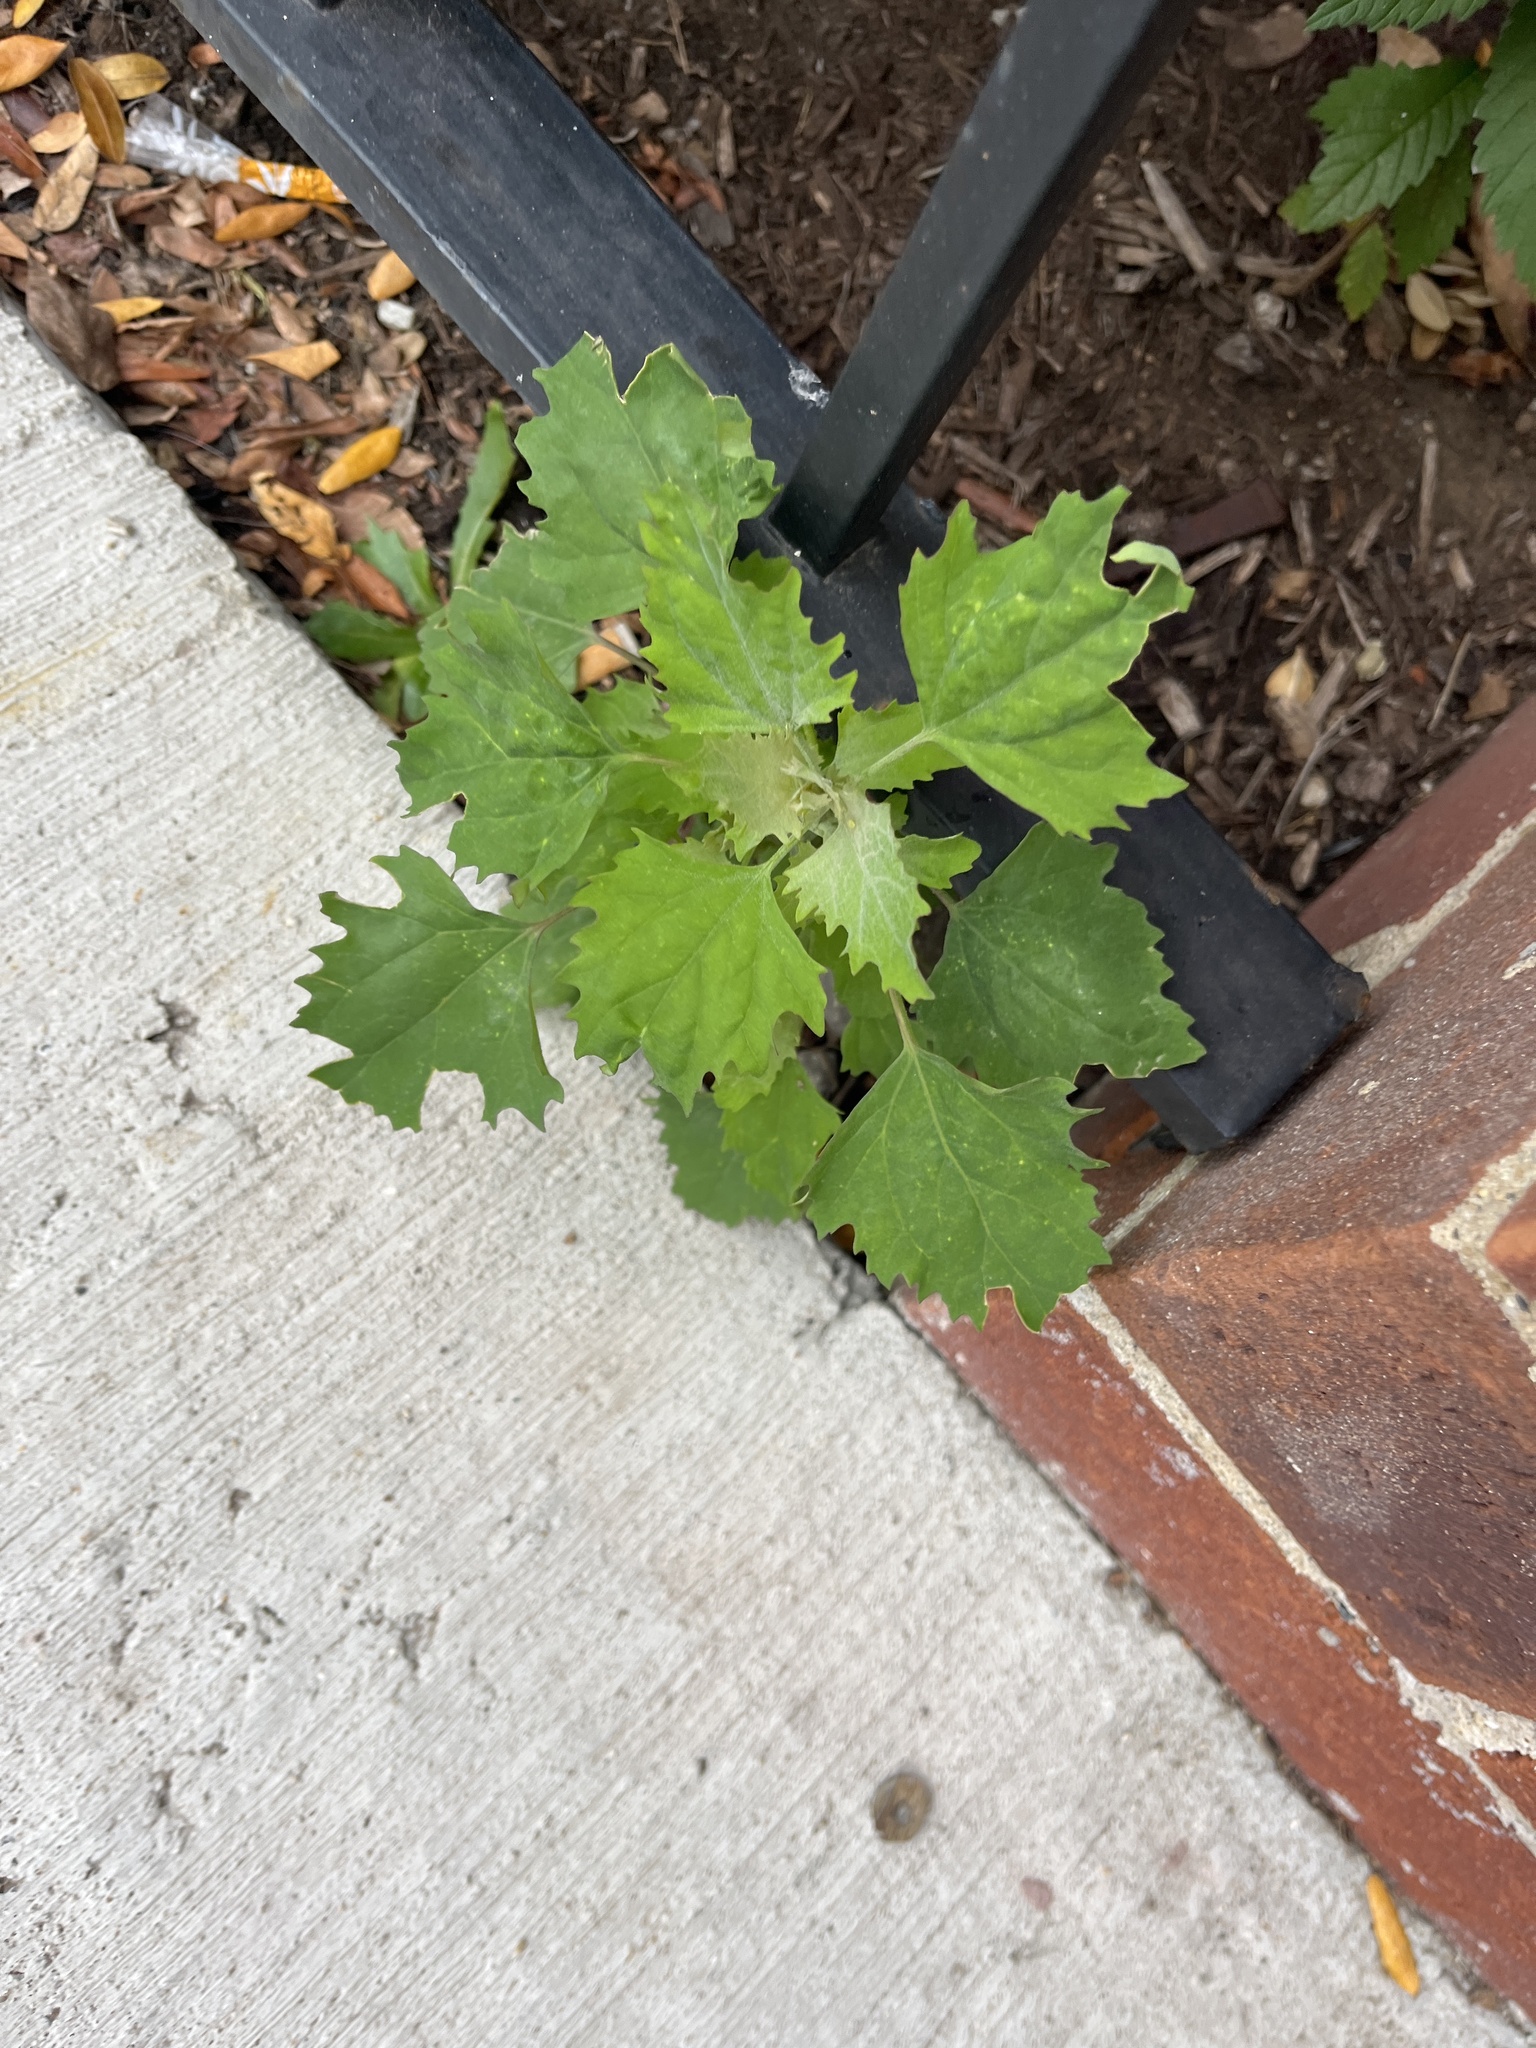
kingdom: Plantae
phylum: Tracheophyta
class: Magnoliopsida
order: Caryophyllales
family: Amaranthaceae
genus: Chenopodium
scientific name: Chenopodium album
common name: Fat-hen
